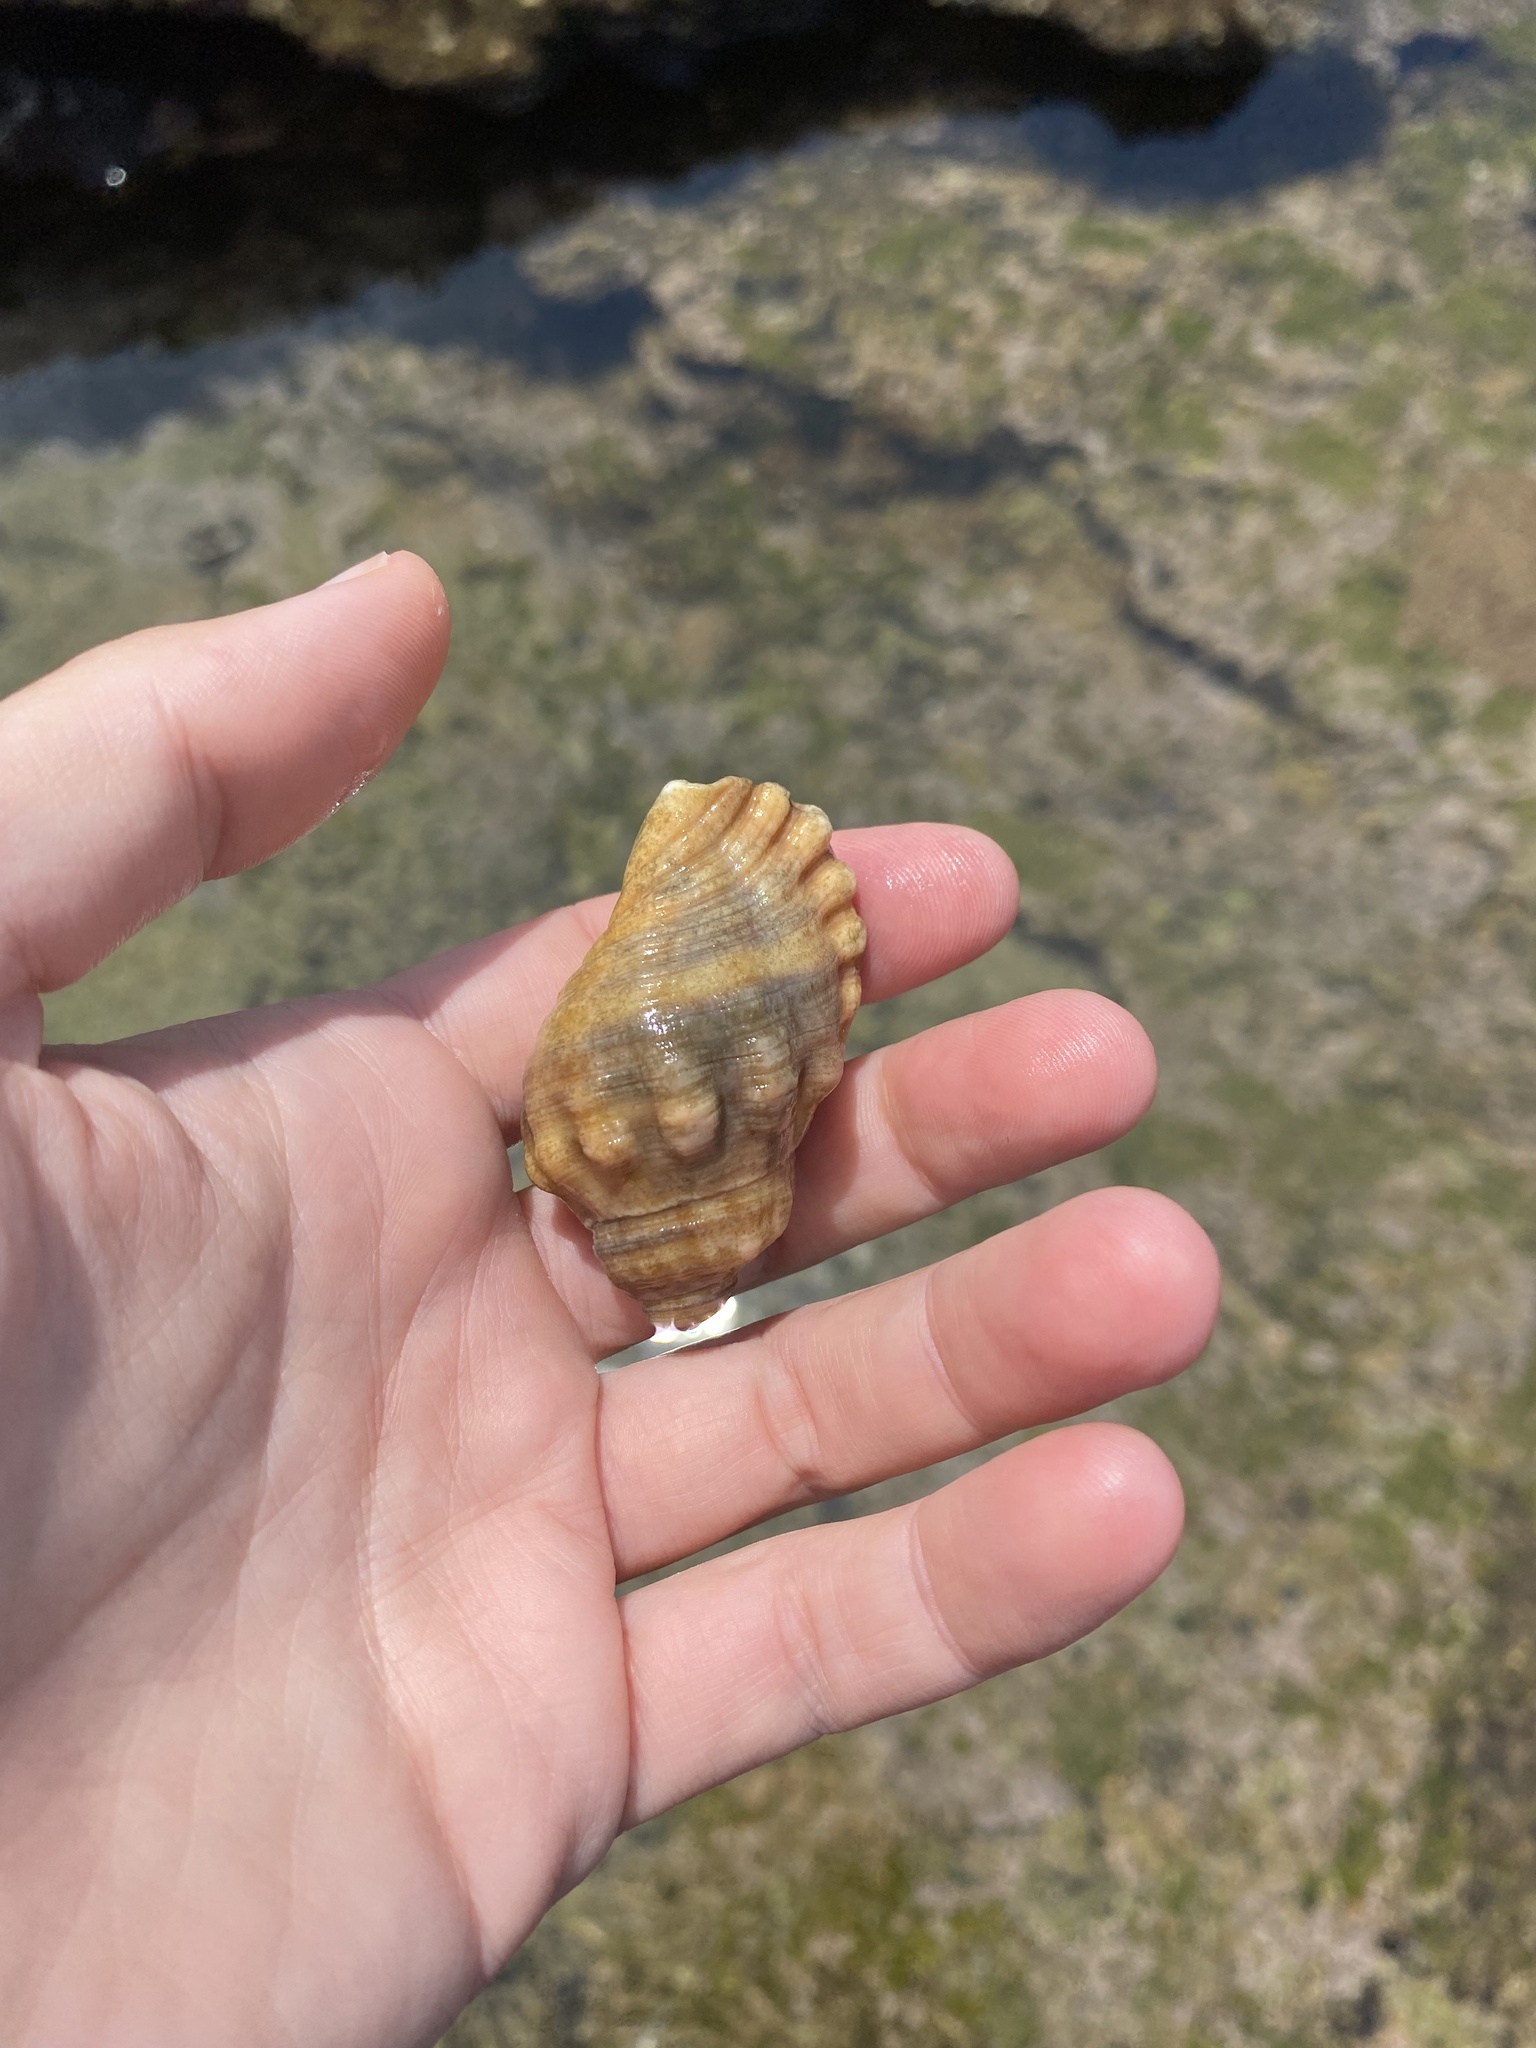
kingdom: Animalia
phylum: Mollusca
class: Gastropoda
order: Littorinimorpha
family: Cymatiidae
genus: Cabestana
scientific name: Cabestana africana
